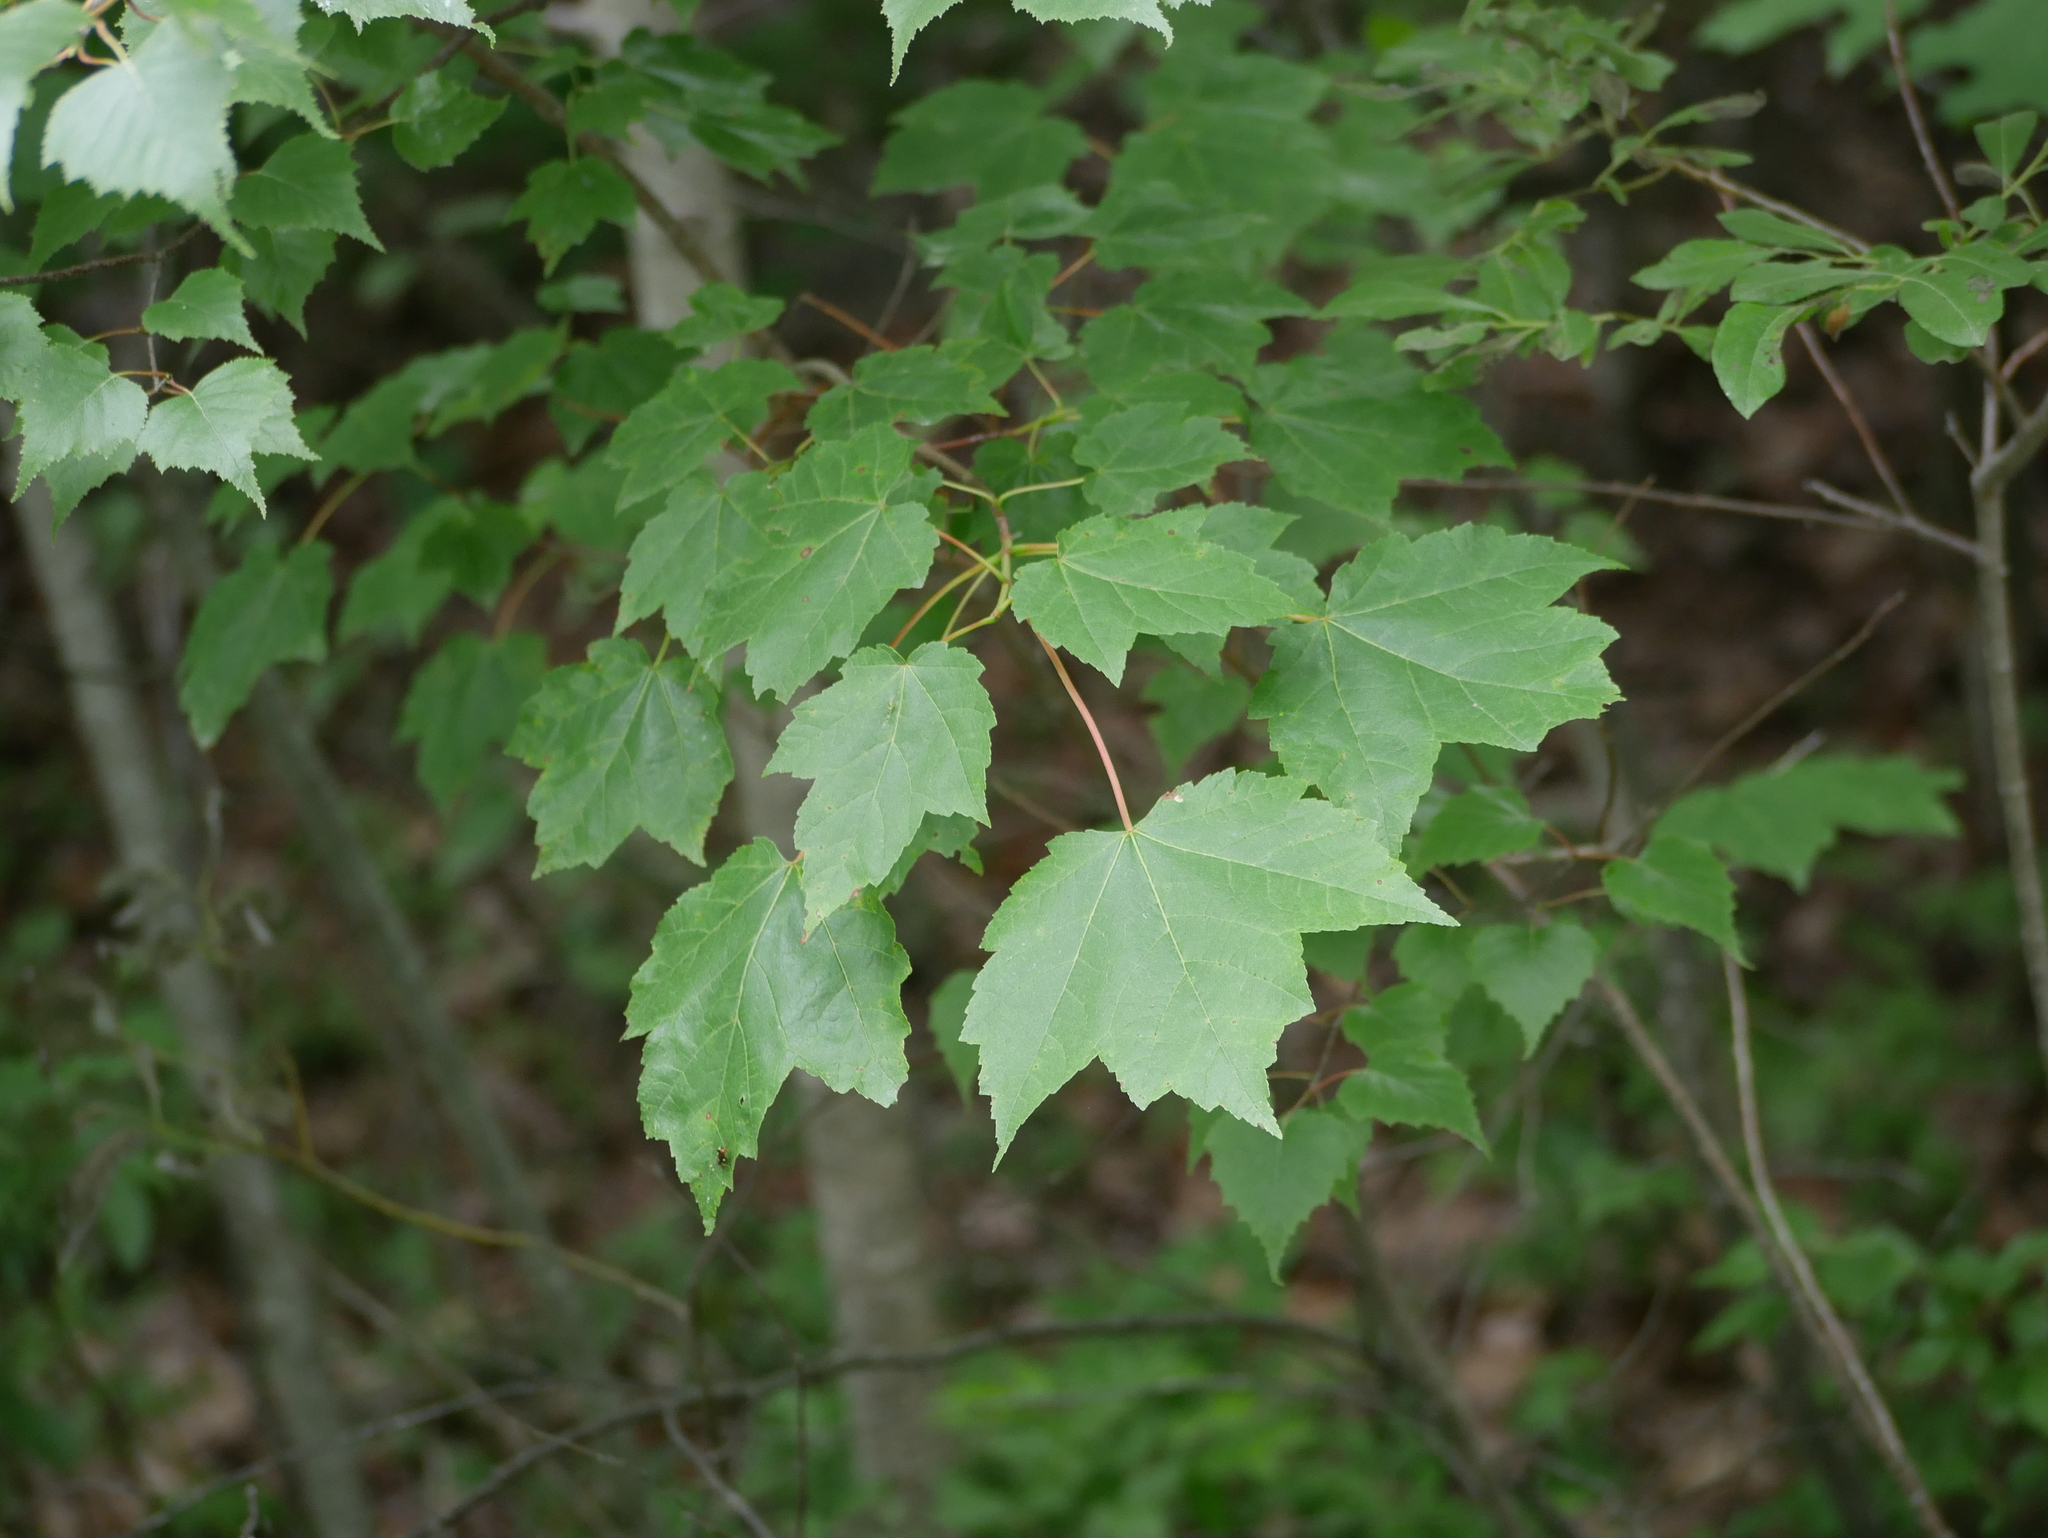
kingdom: Plantae
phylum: Tracheophyta
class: Magnoliopsida
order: Sapindales
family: Sapindaceae
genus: Acer
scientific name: Acer rubrum
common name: Red maple
